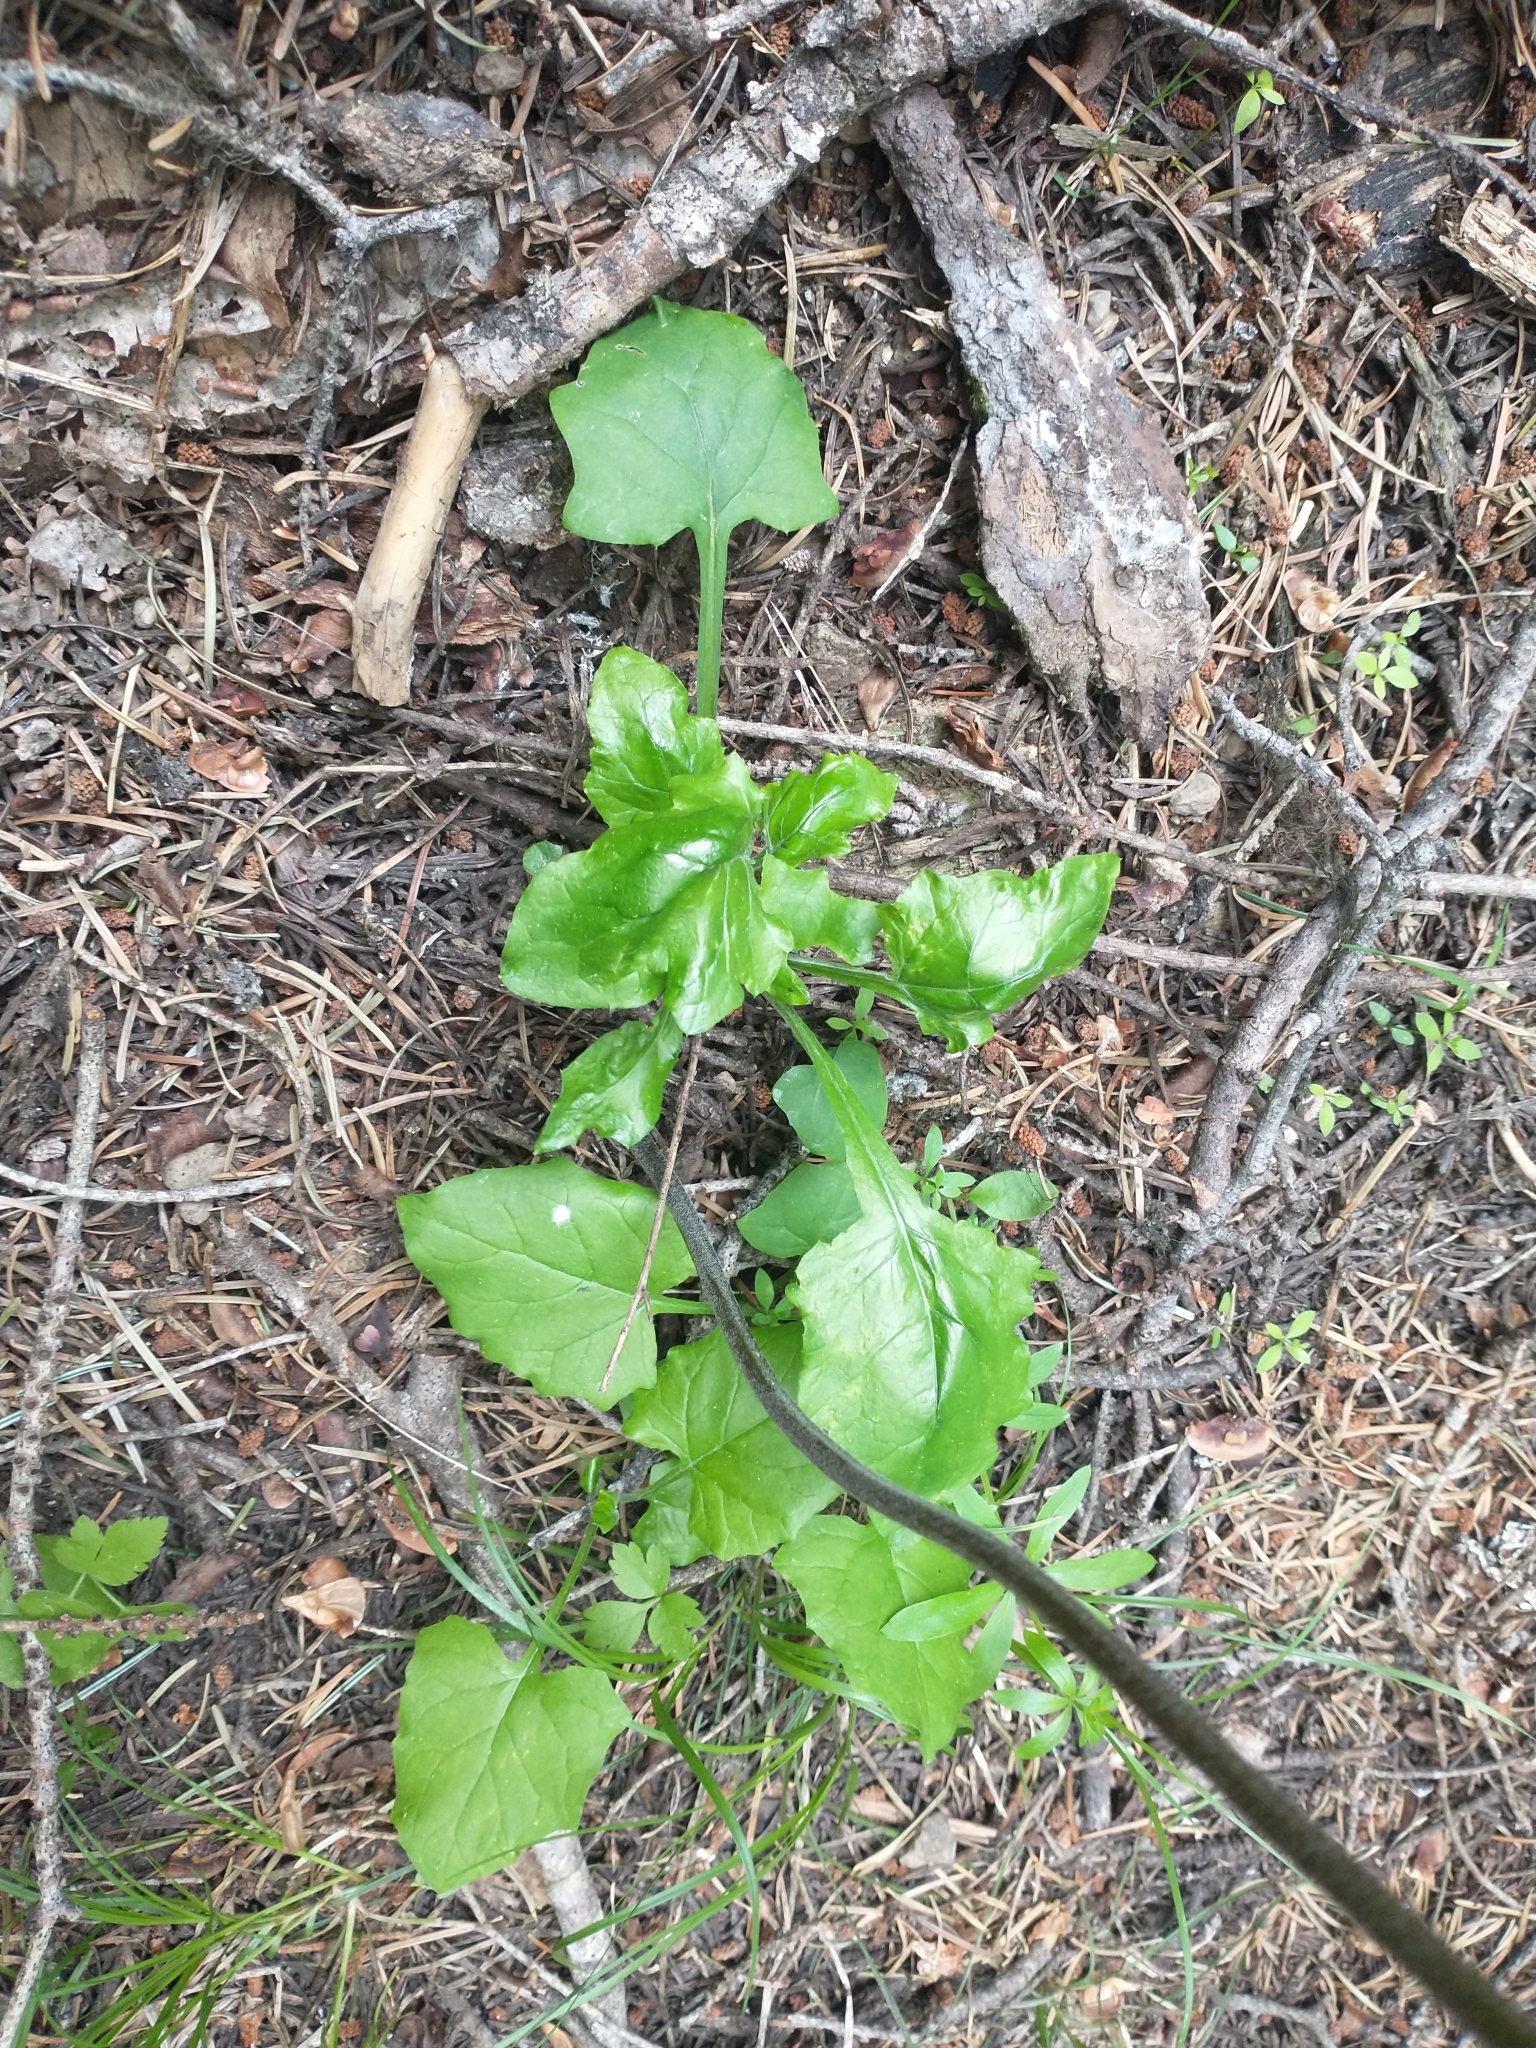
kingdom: Plantae
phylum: Tracheophyta
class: Magnoliopsida
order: Asterales
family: Asteraceae
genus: Adenocaulon
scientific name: Adenocaulon bicolor
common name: Trailplant
